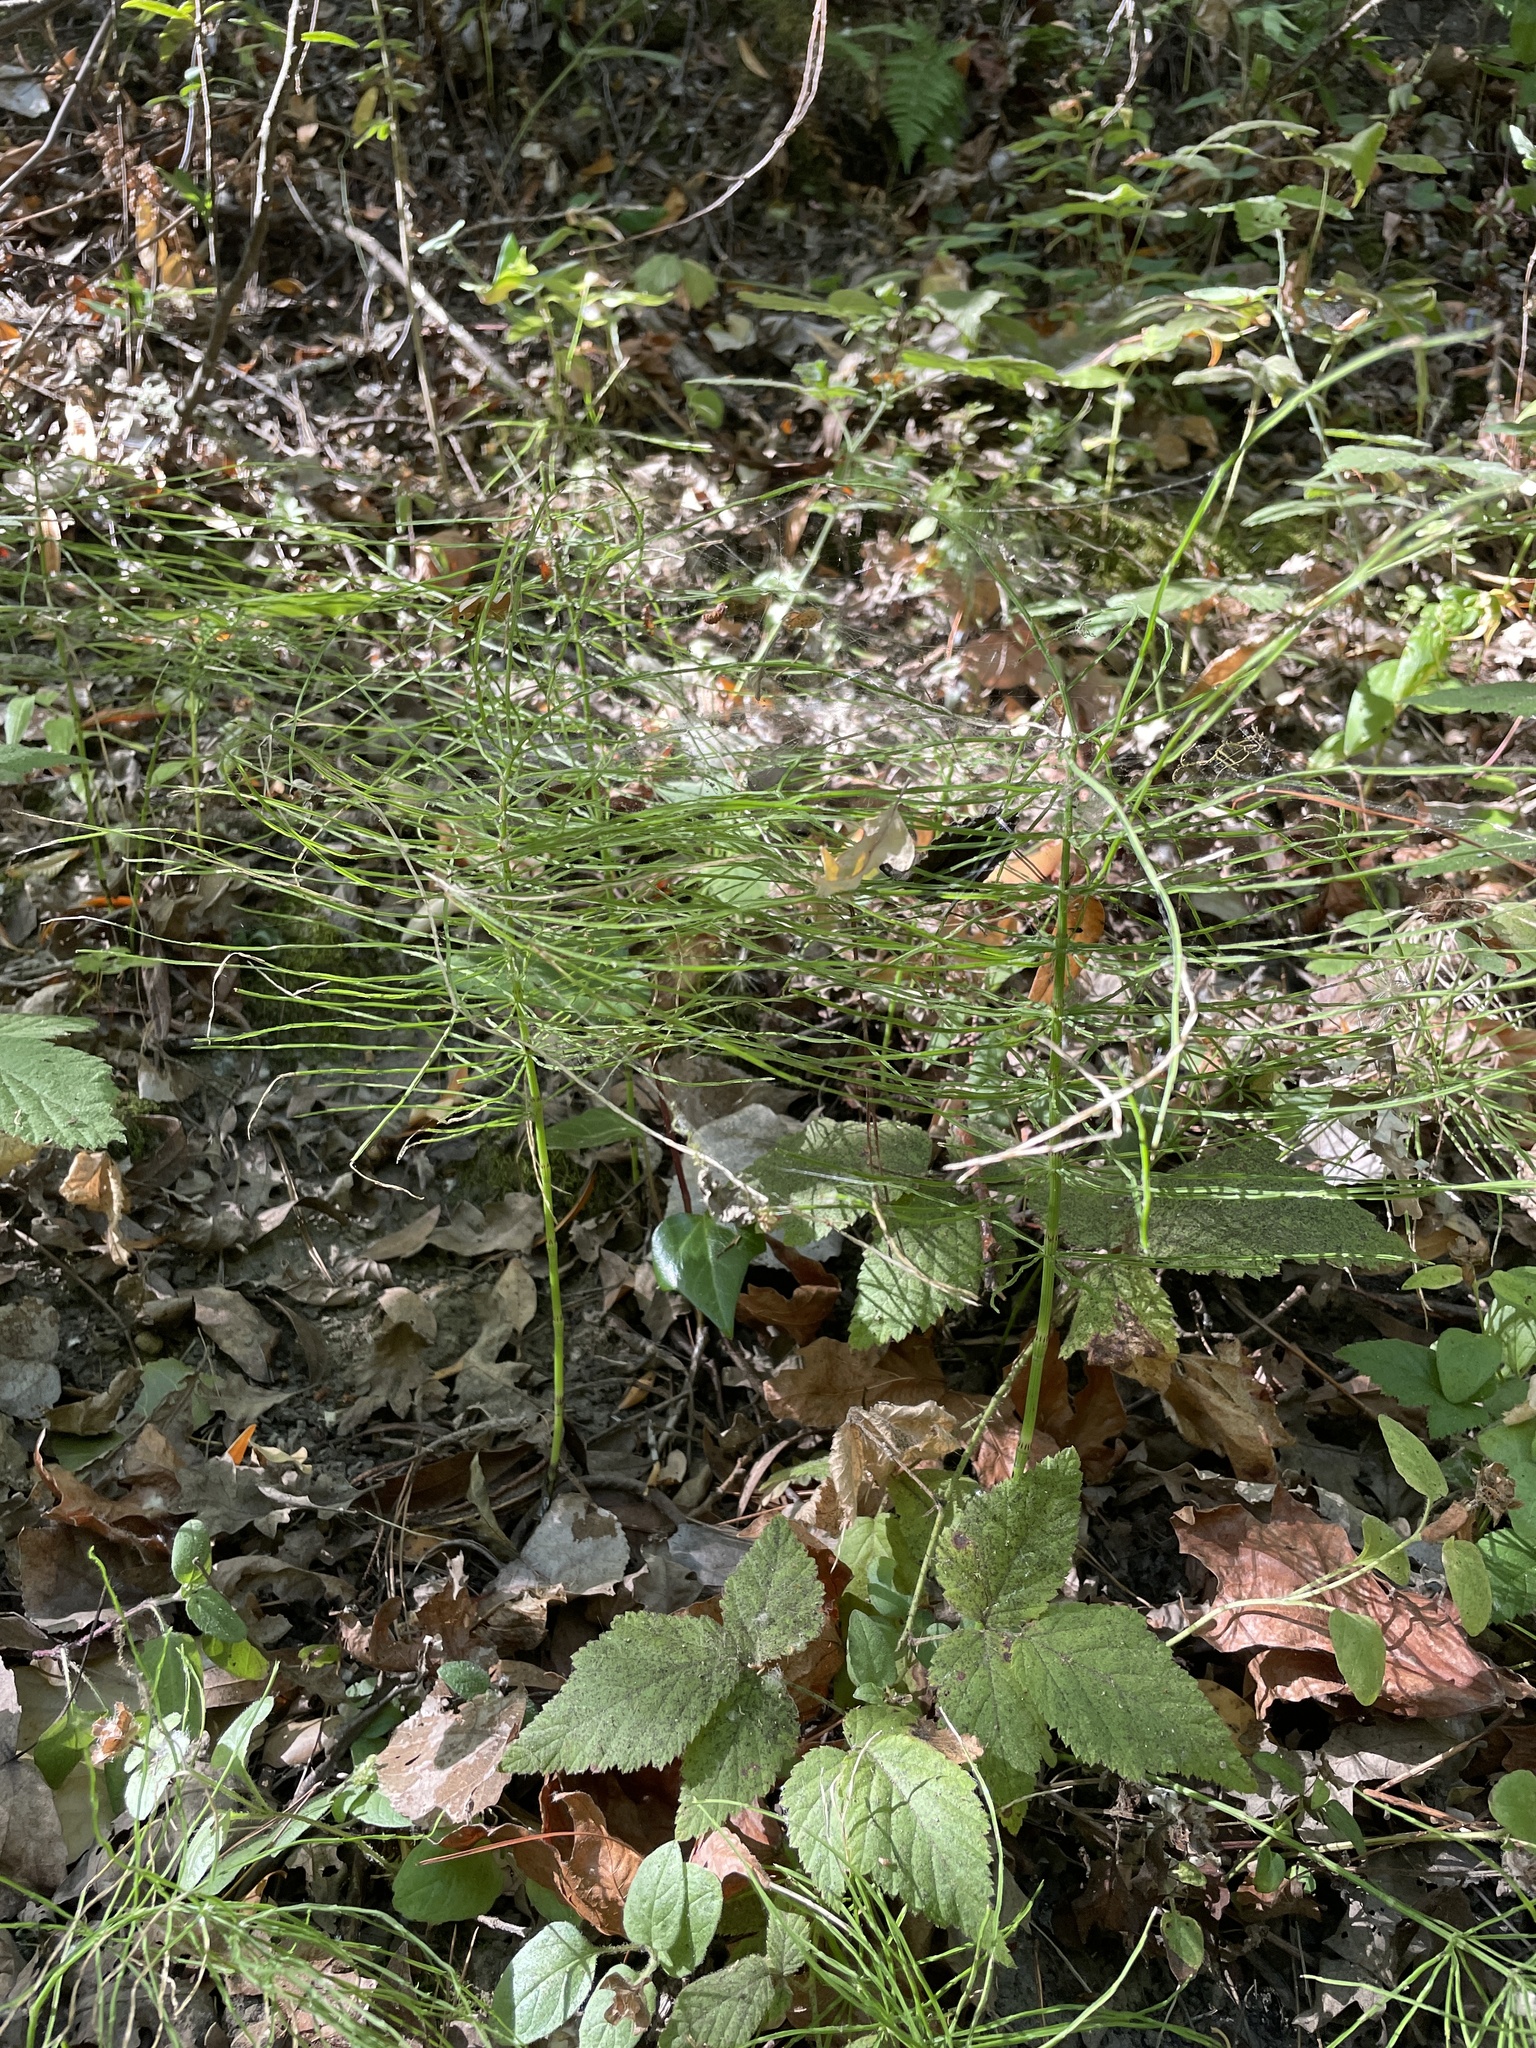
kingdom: Plantae
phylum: Tracheophyta
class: Polypodiopsida
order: Equisetales
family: Equisetaceae
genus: Equisetum
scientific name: Equisetum arvense
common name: Field horsetail
